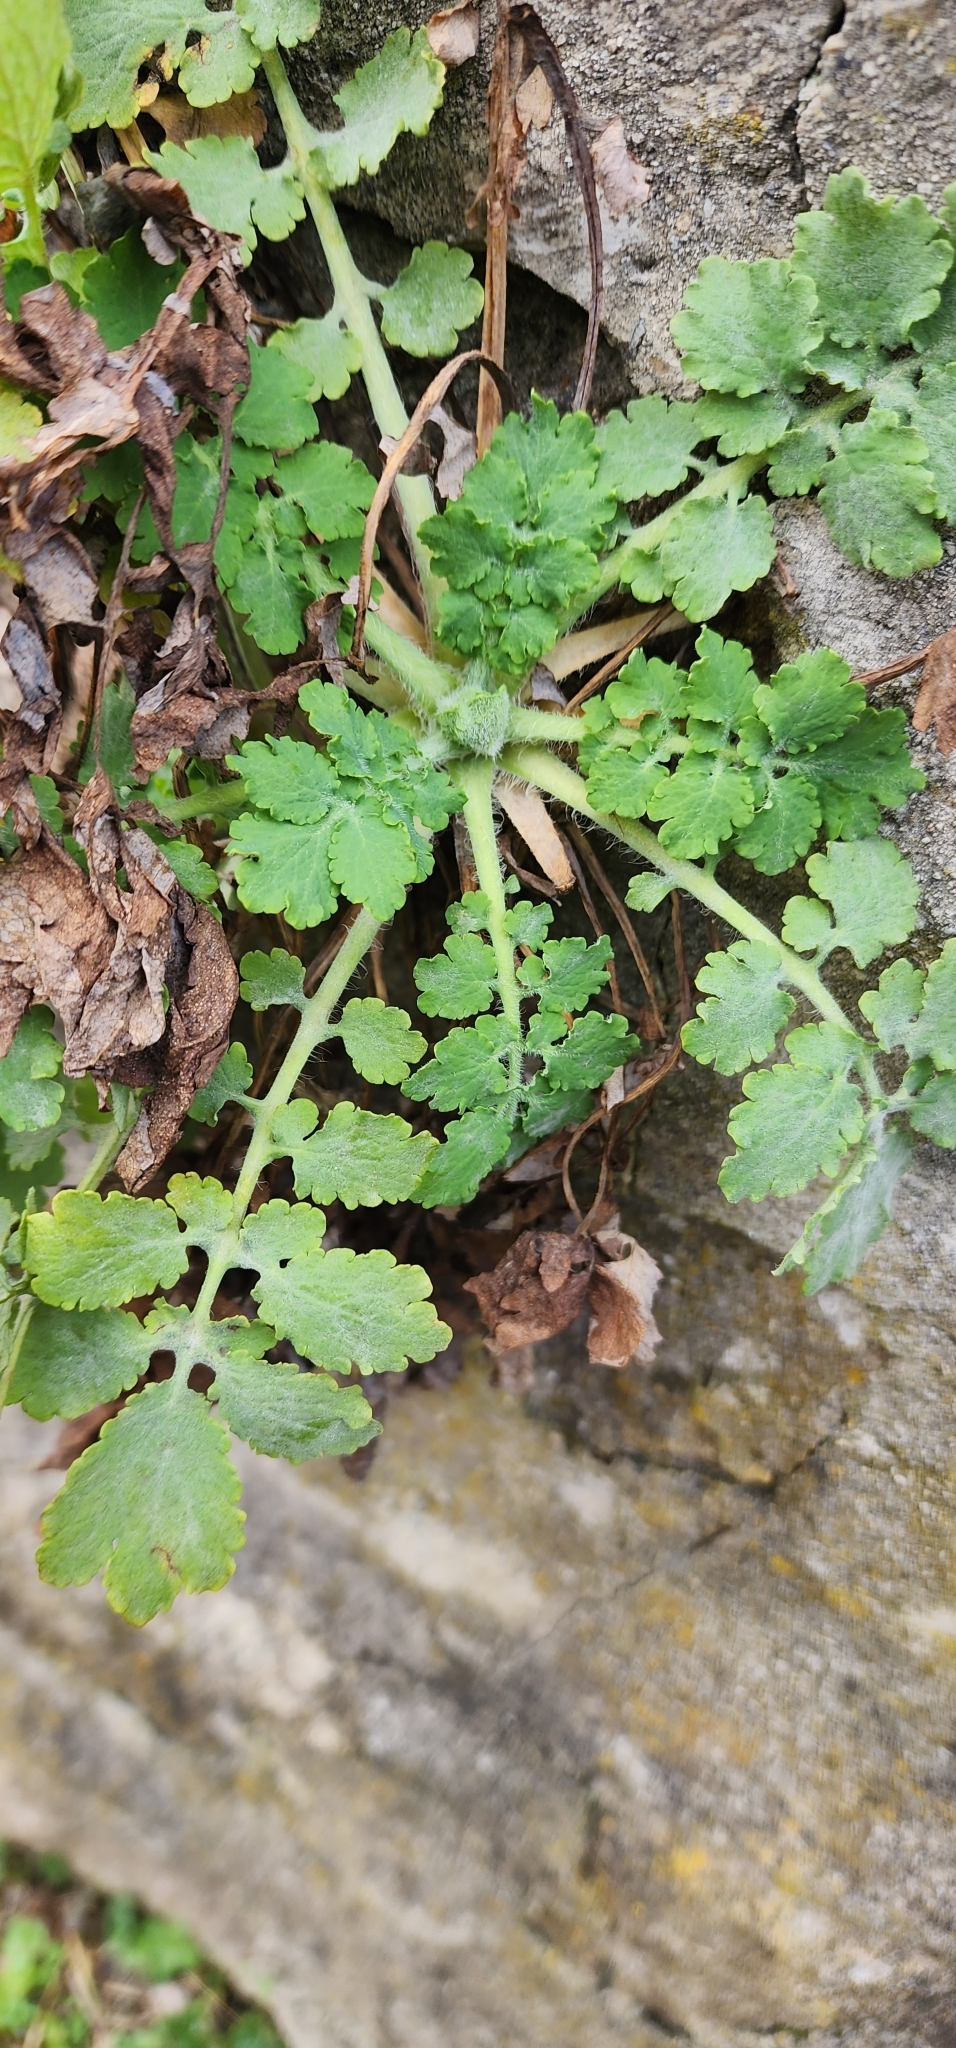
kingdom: Plantae
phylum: Tracheophyta
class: Magnoliopsida
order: Ranunculales
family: Papaveraceae
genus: Chelidonium
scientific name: Chelidonium majus
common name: Greater celandine
